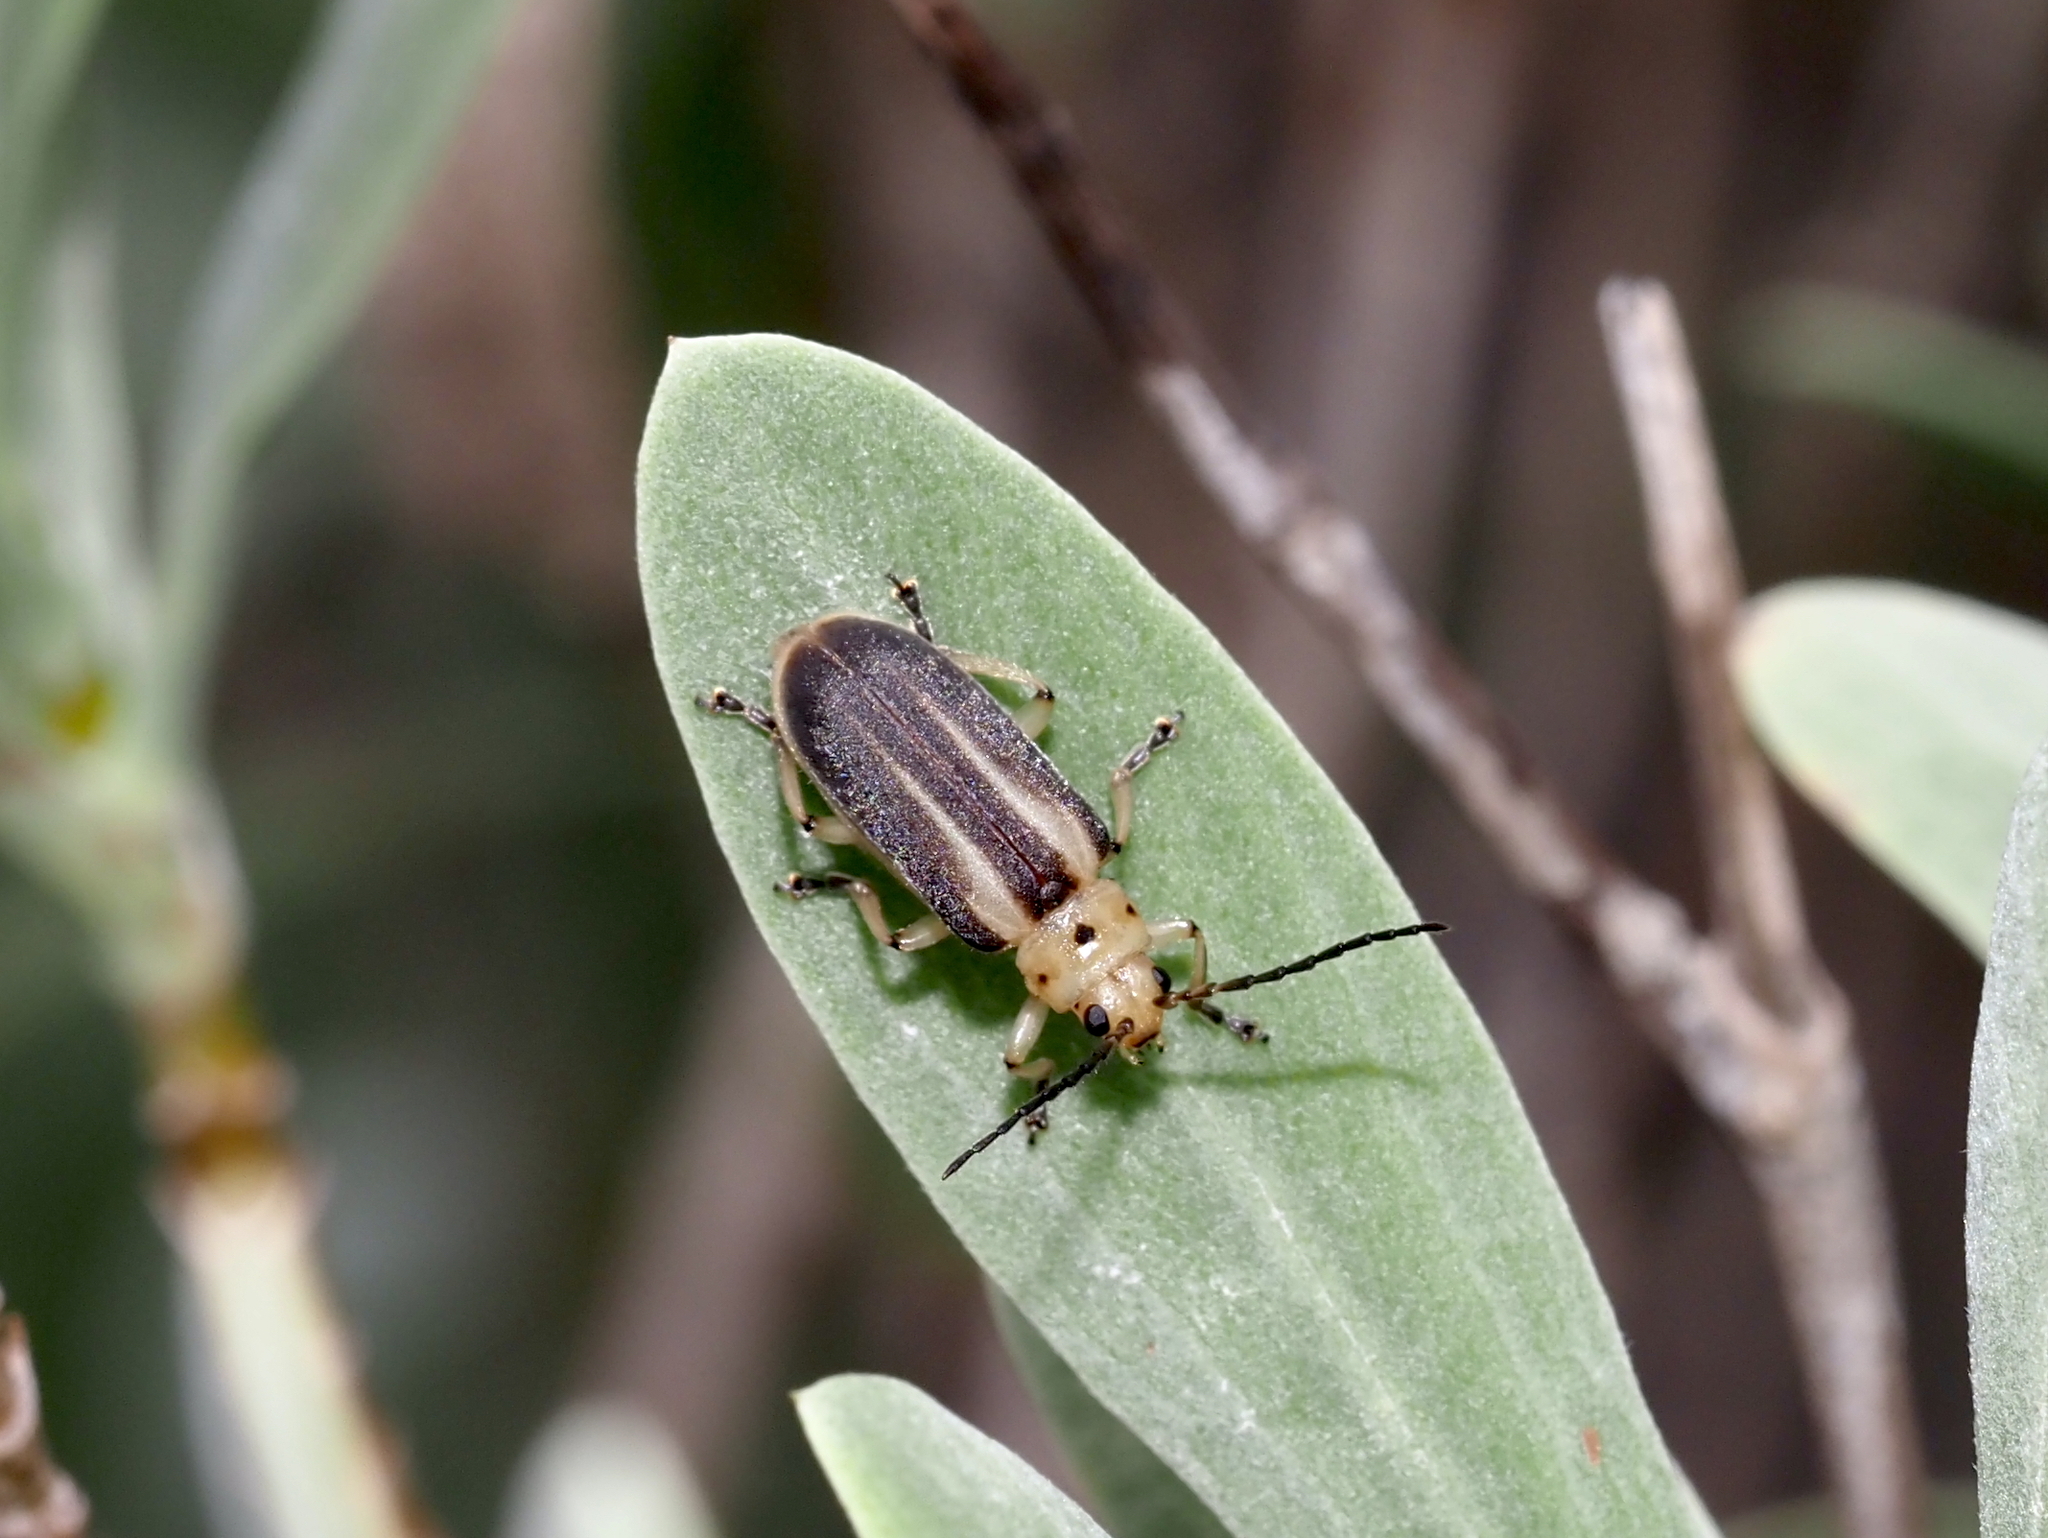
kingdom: Animalia
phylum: Arthropoda
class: Insecta
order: Coleoptera
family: Chrysomelidae
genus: Trirhabda
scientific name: Trirhabda bacharidis
